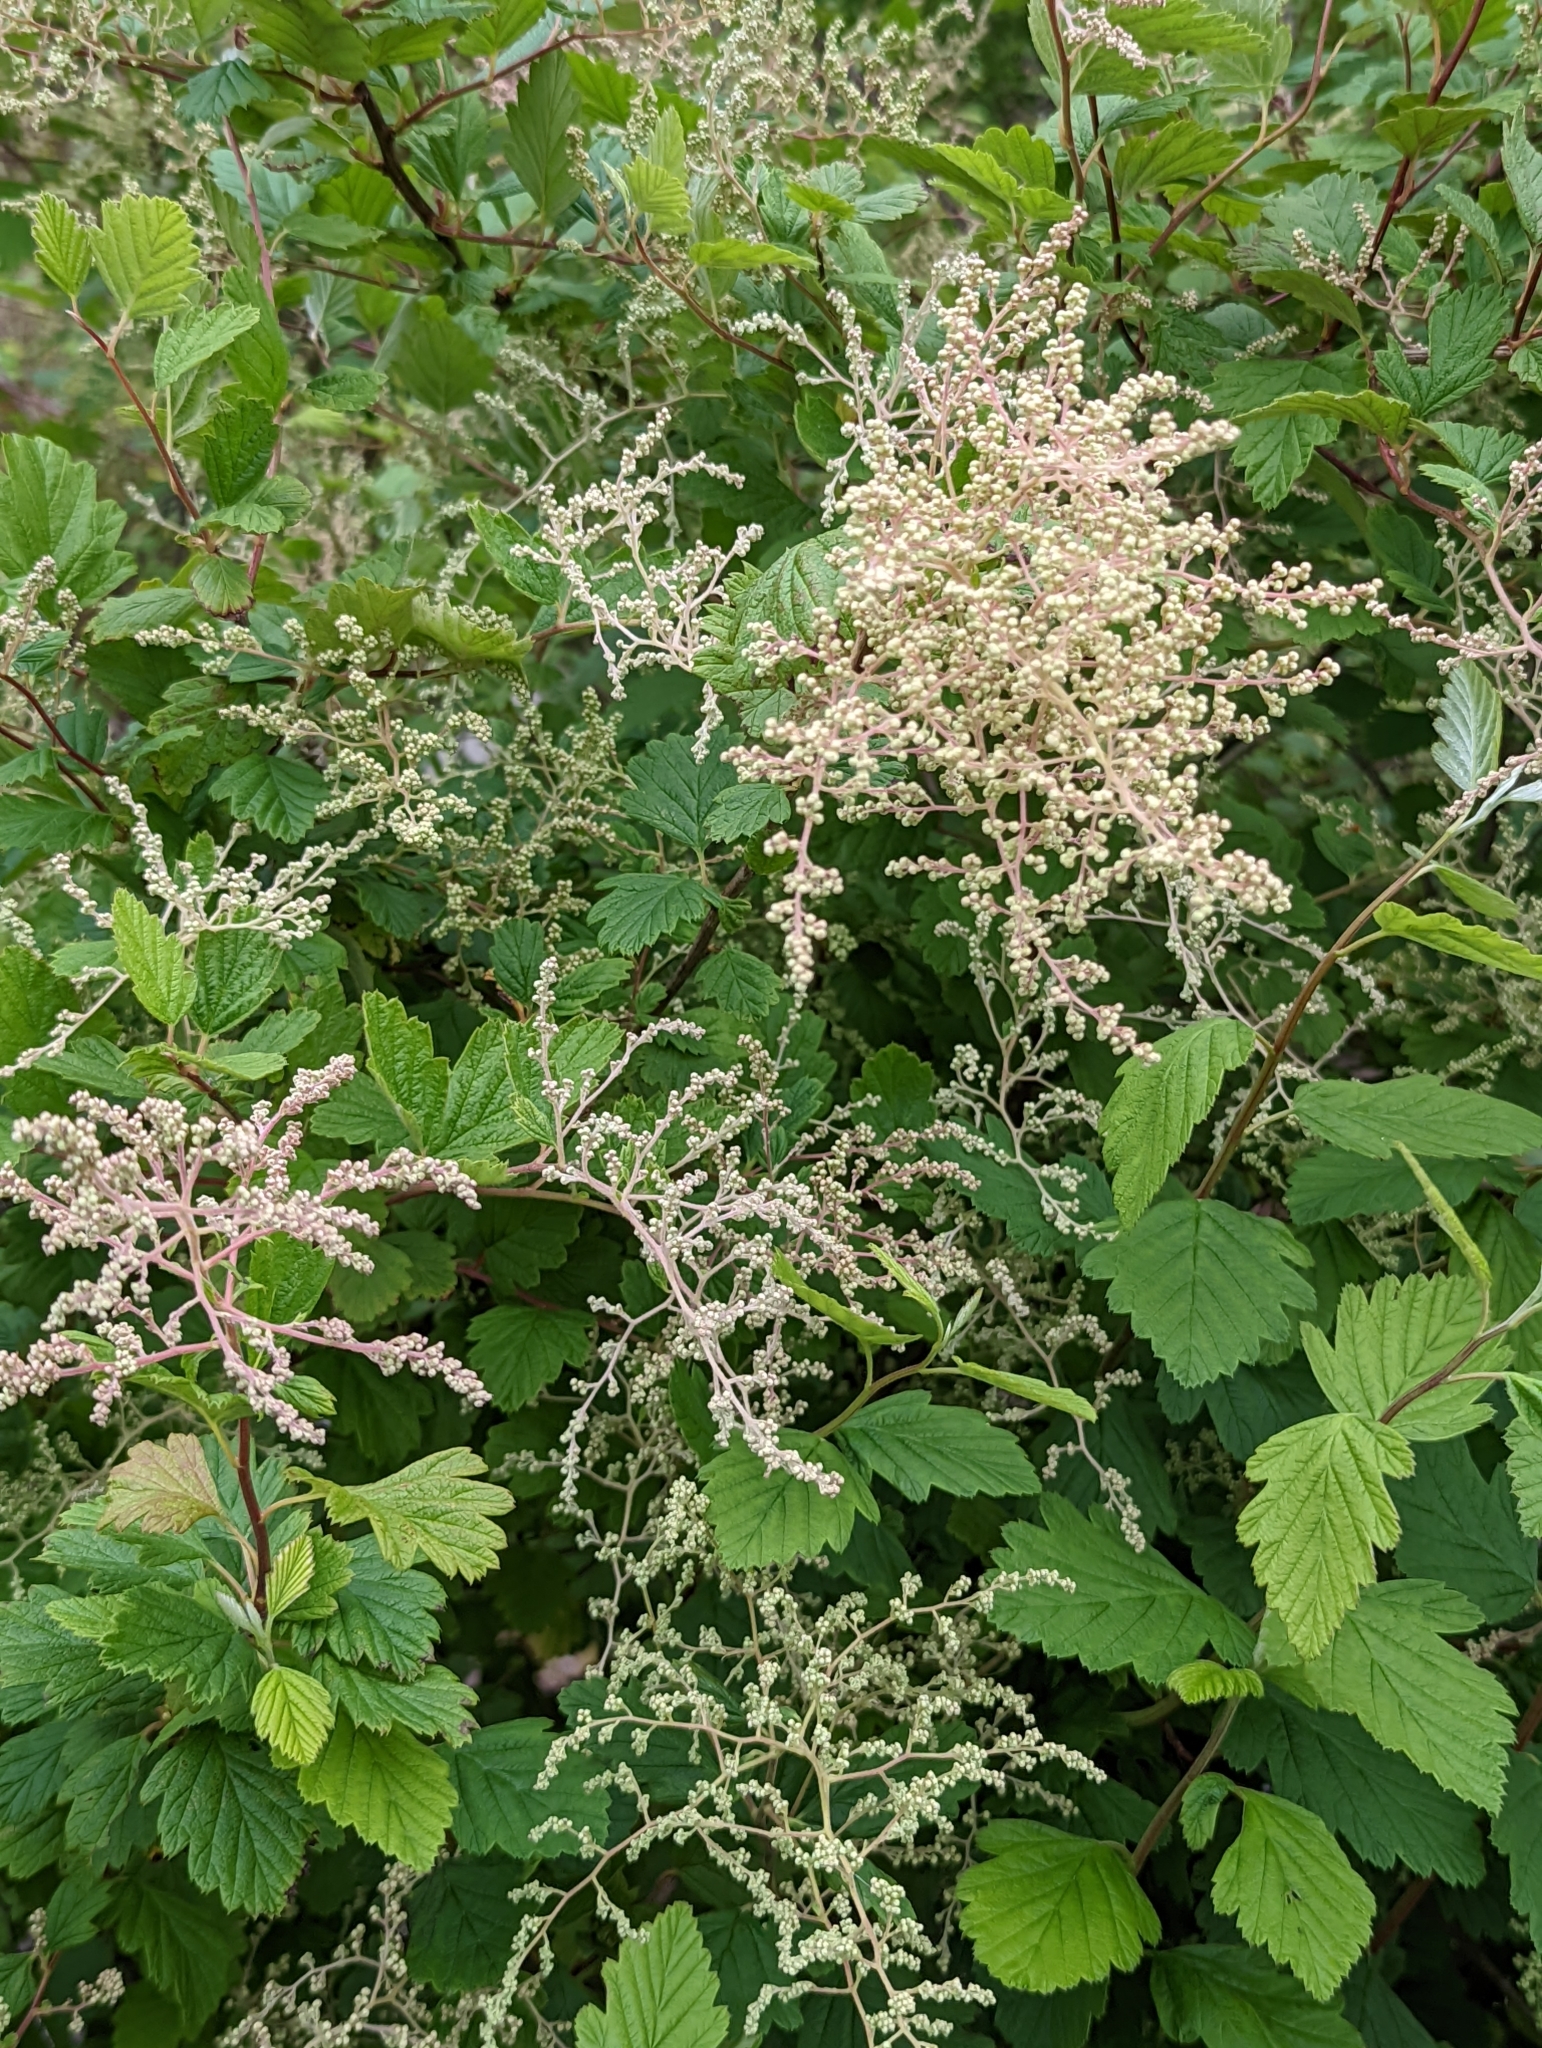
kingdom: Plantae
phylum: Tracheophyta
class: Magnoliopsida
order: Rosales
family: Rosaceae
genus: Holodiscus
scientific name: Holodiscus discolor
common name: Oceanspray
